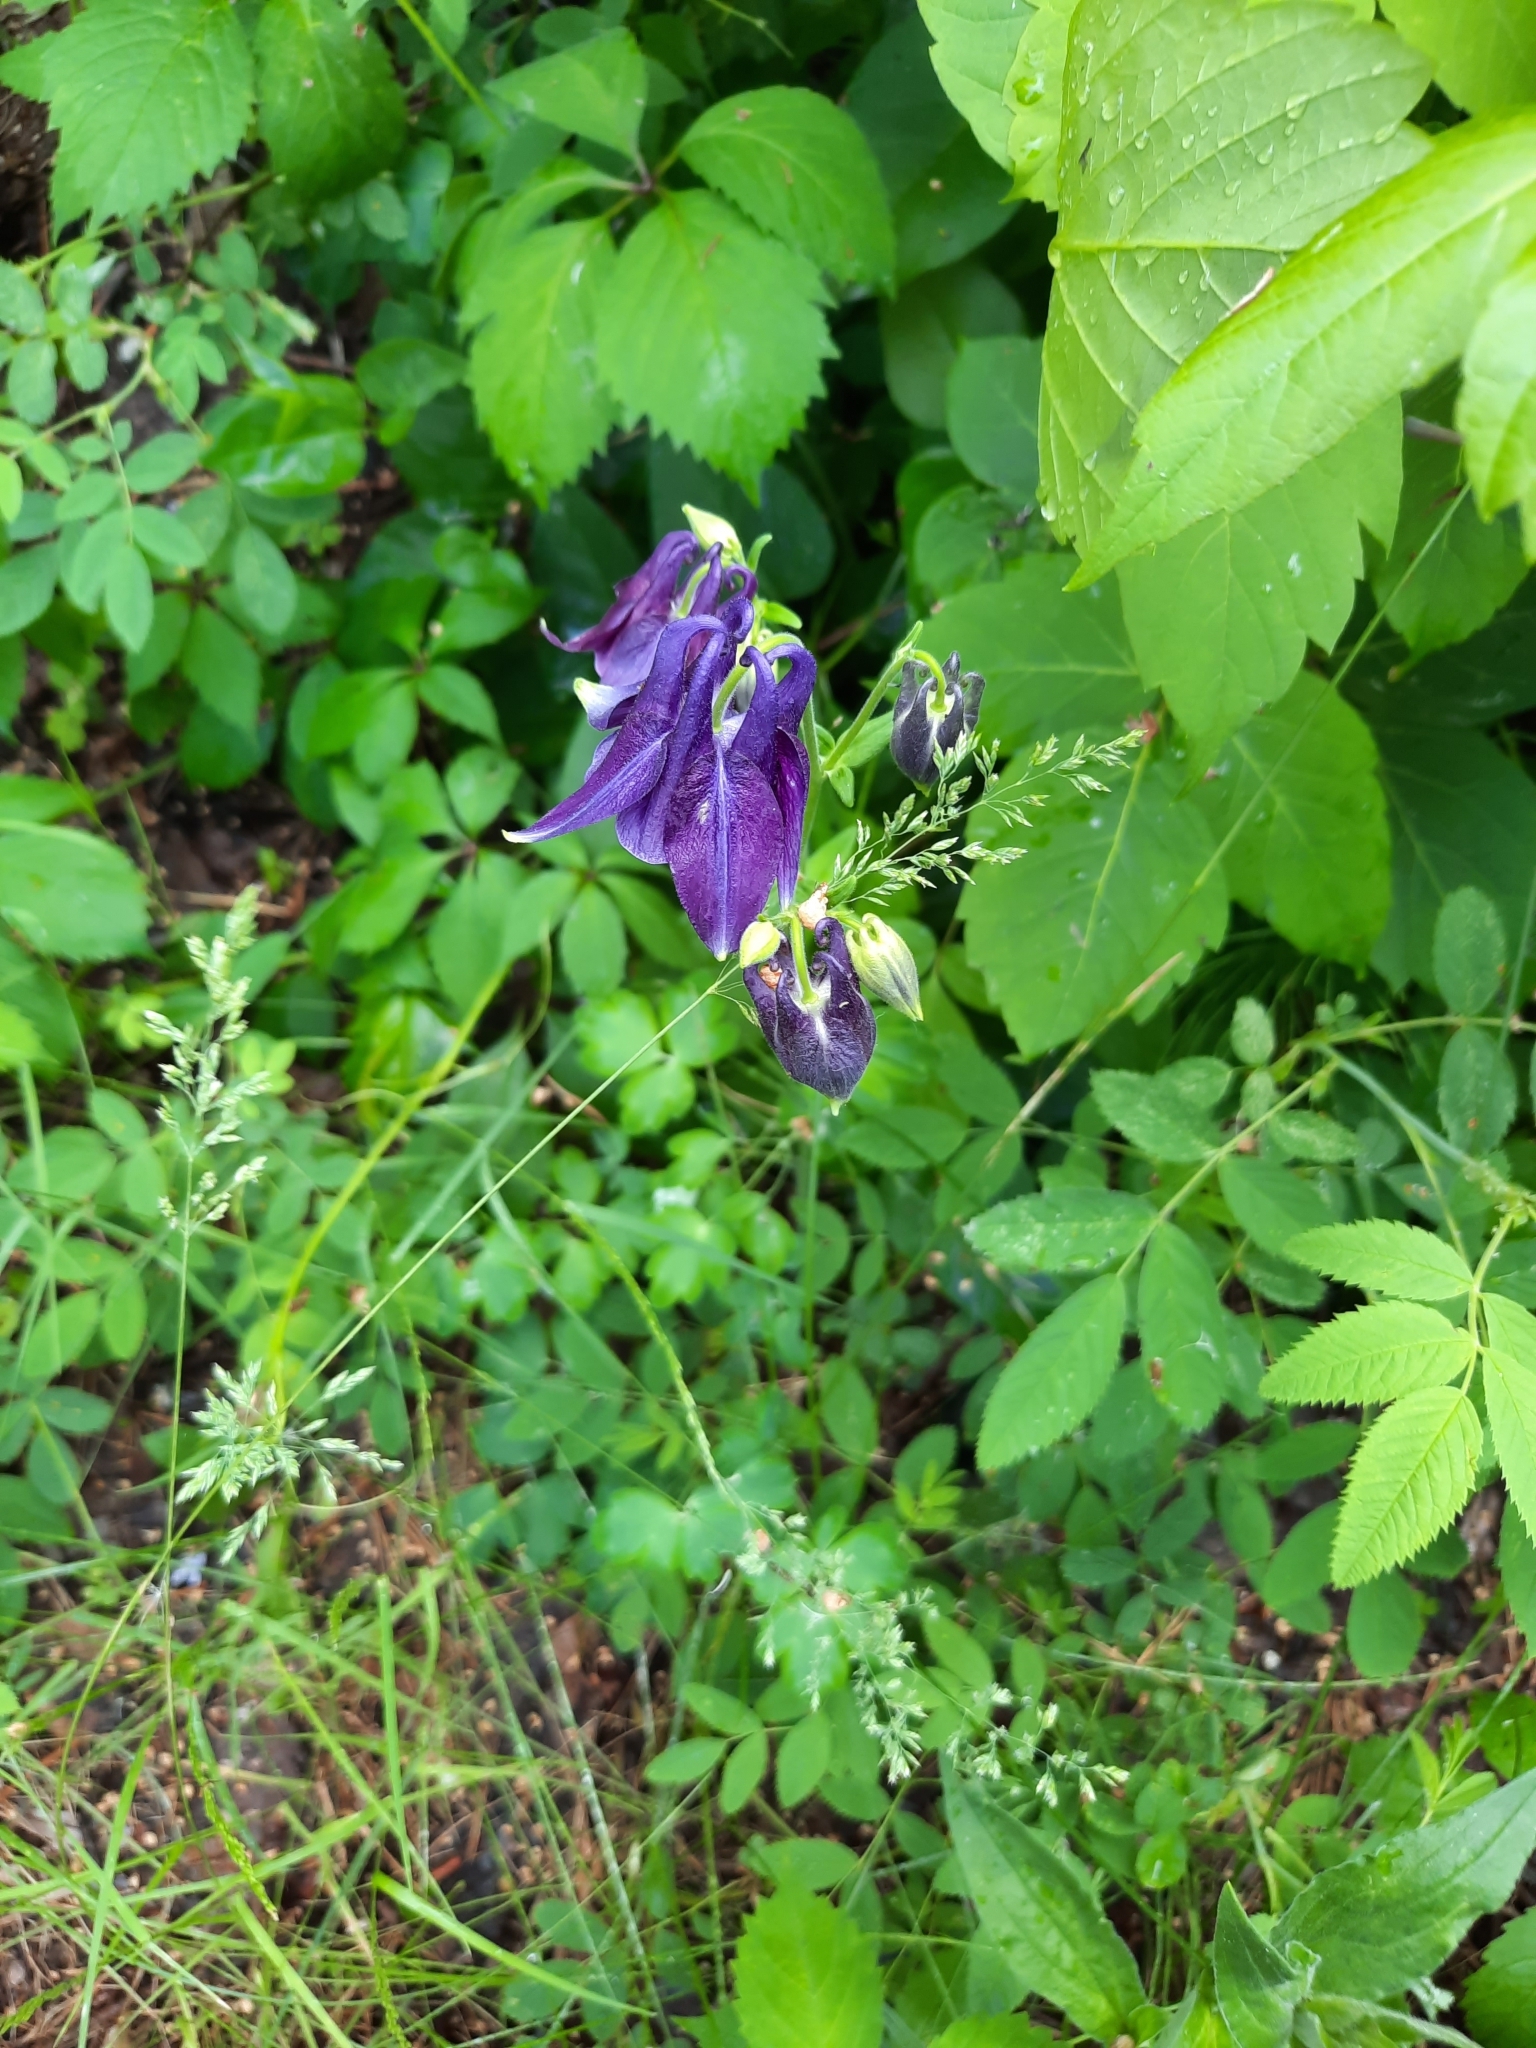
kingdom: Plantae
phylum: Tracheophyta
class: Magnoliopsida
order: Ranunculales
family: Ranunculaceae
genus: Aquilegia
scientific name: Aquilegia vulgaris
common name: Columbine
